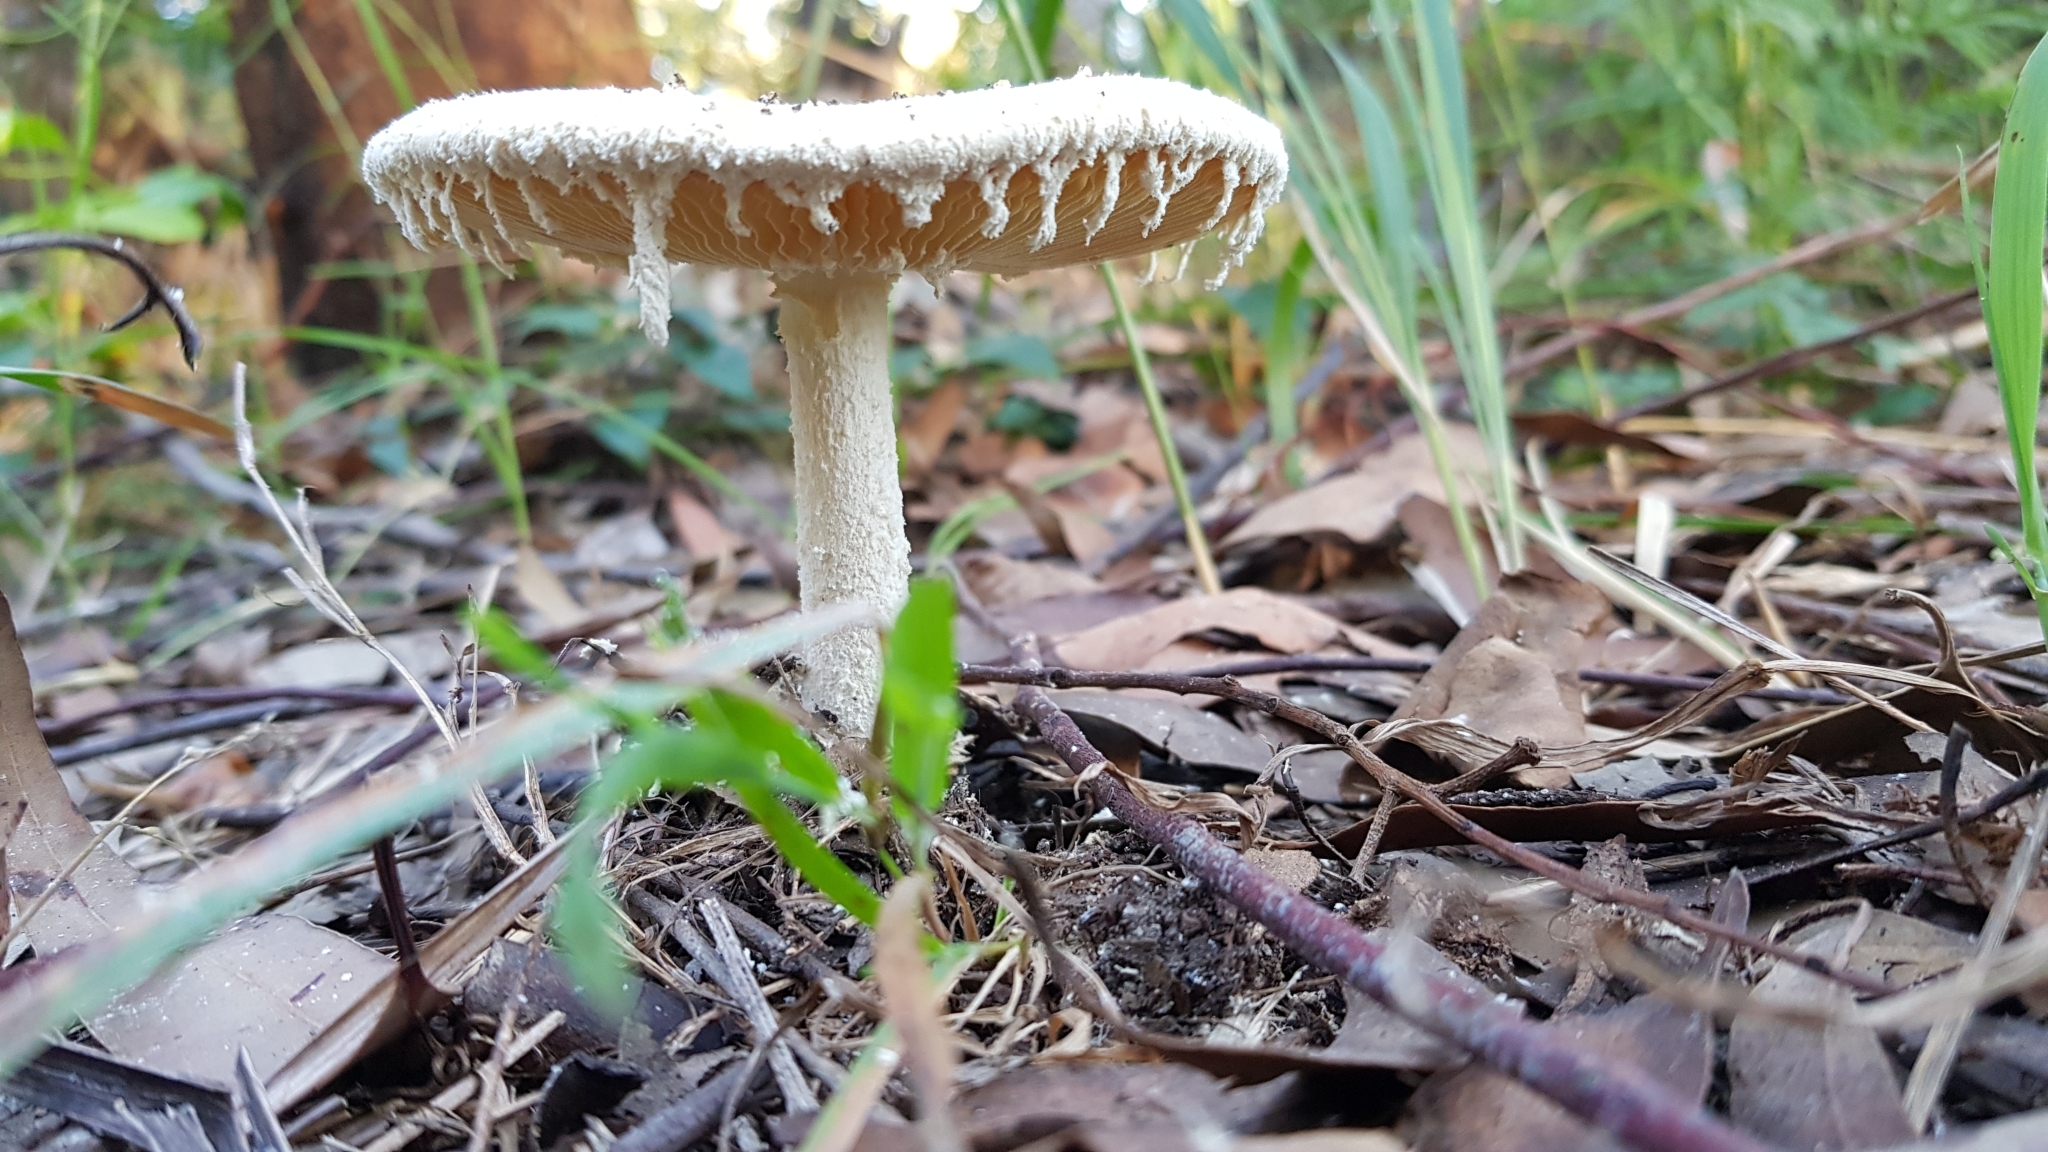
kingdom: Fungi
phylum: Basidiomycota
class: Agaricomycetes
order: Agaricales
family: Amanitaceae
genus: Amanita
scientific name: Amanita farinacea
